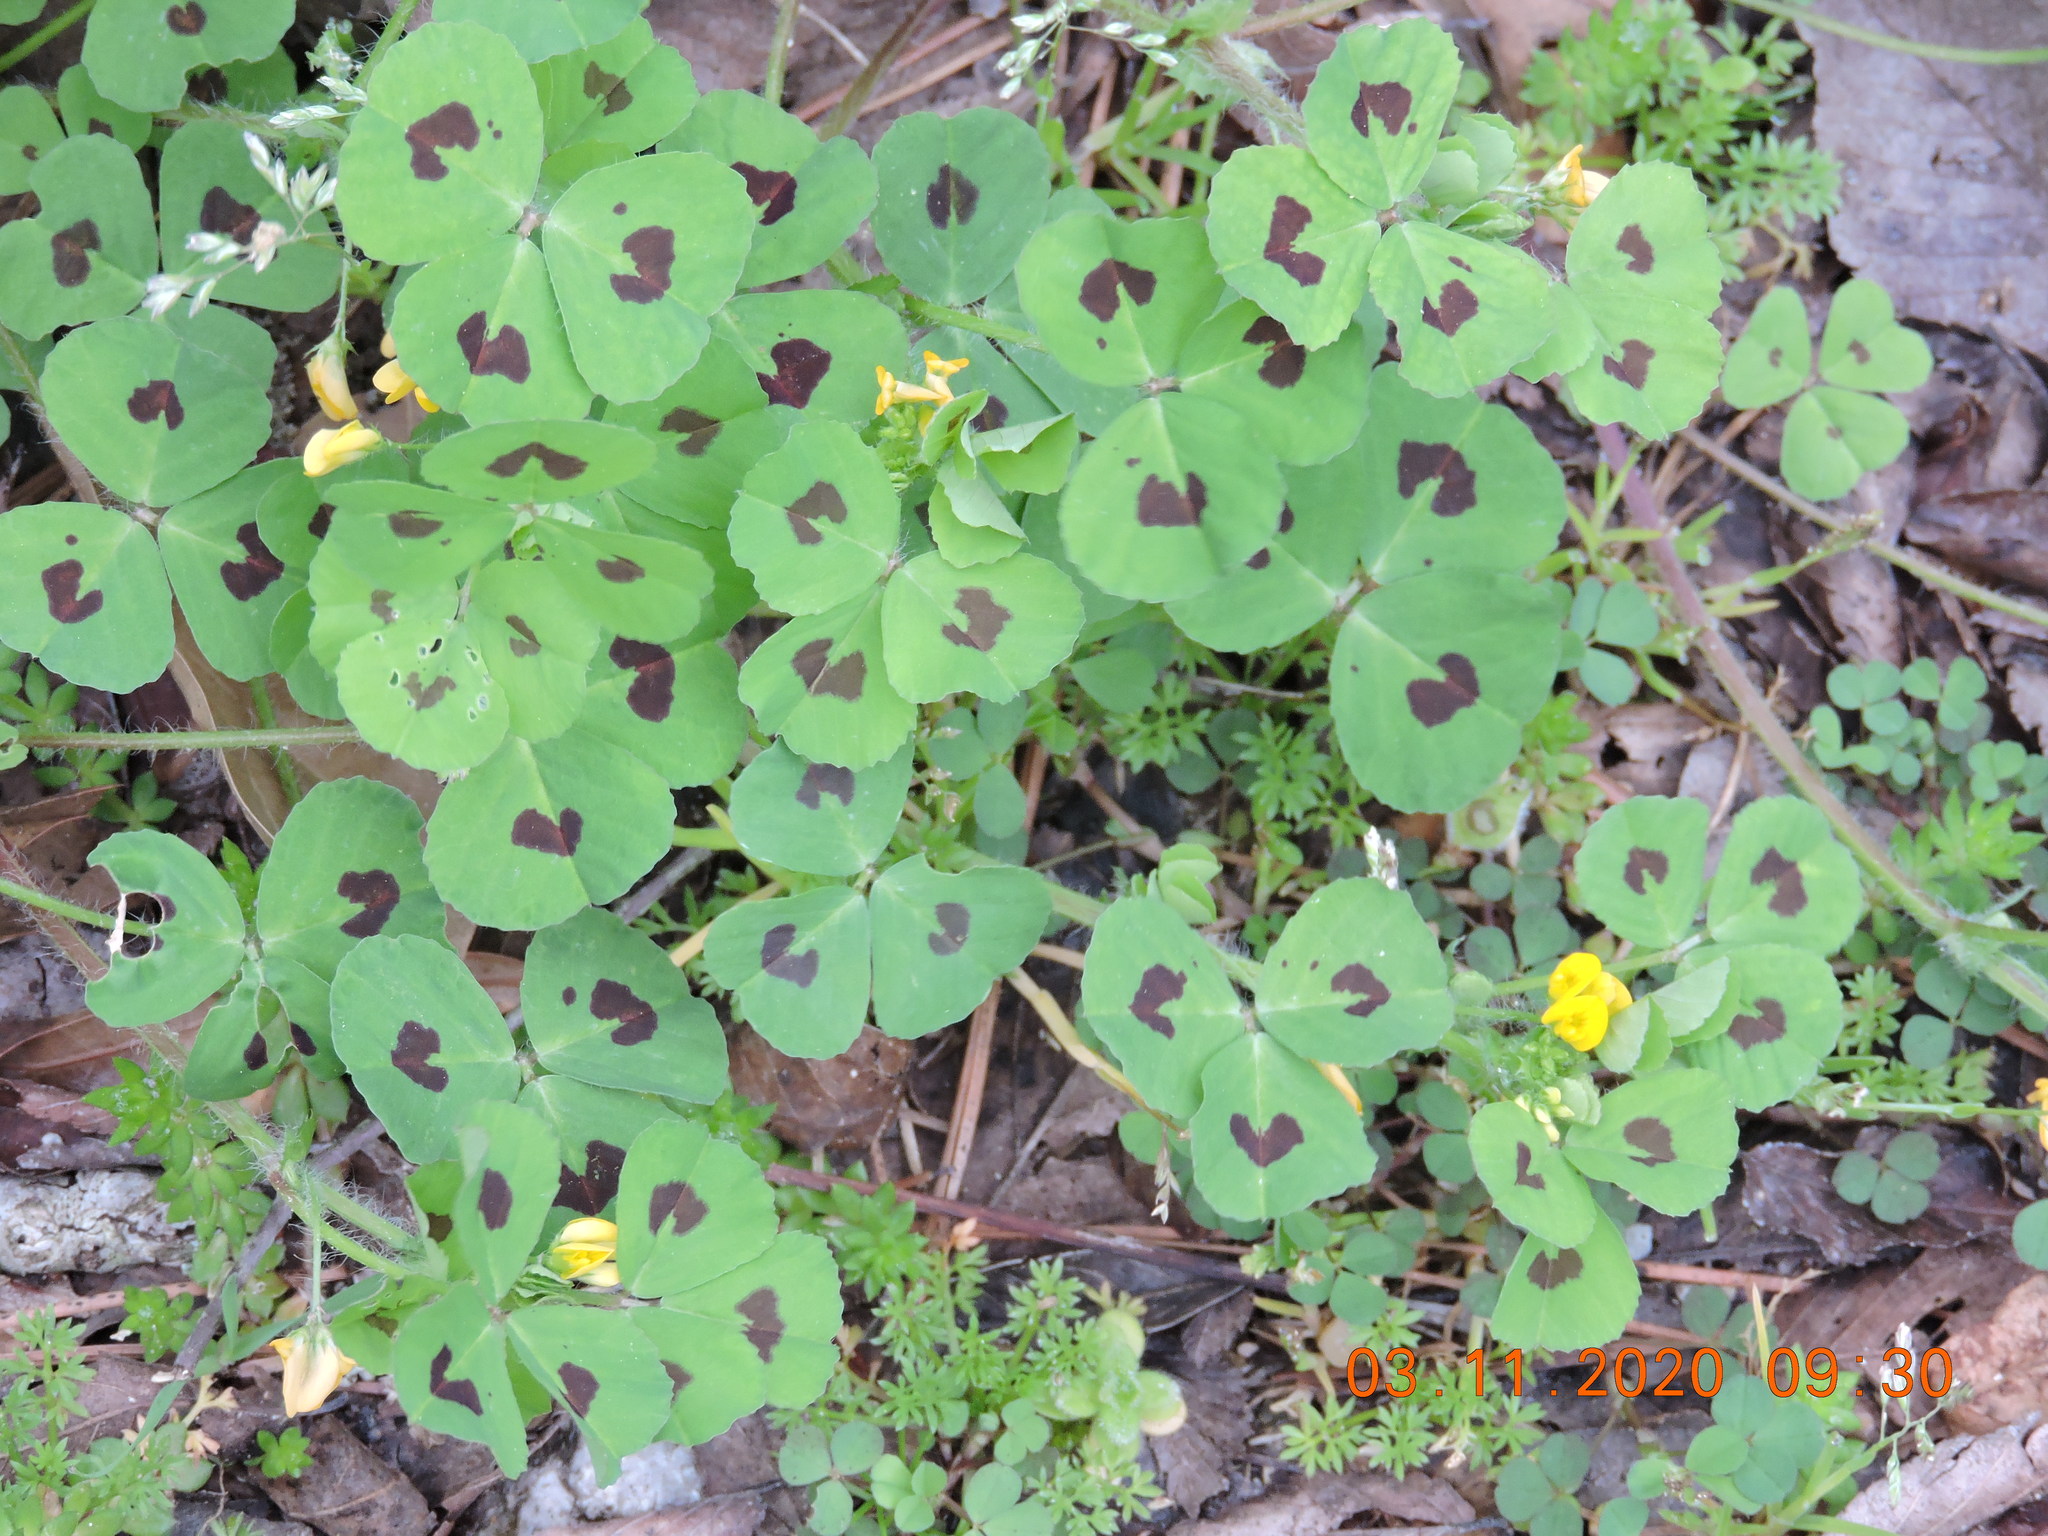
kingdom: Plantae
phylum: Tracheophyta
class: Magnoliopsida
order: Fabales
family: Fabaceae
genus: Medicago
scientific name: Medicago arabica
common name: Spotted medick
